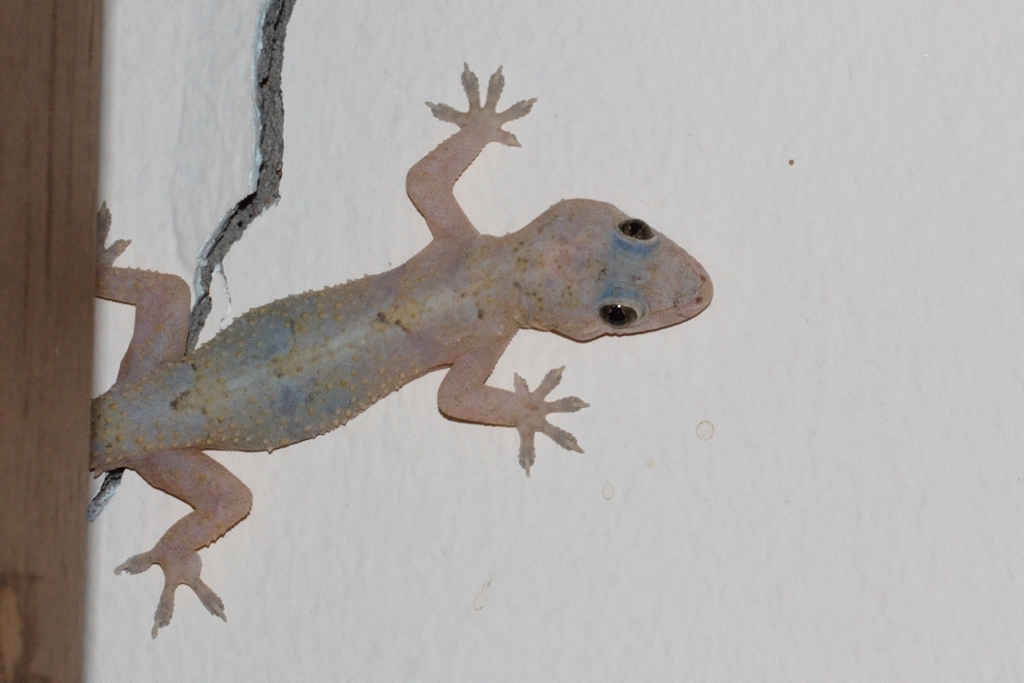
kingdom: Animalia
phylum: Chordata
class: Squamata
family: Gekkonidae
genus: Hemidactylus
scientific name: Hemidactylus mabouia
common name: House gecko
